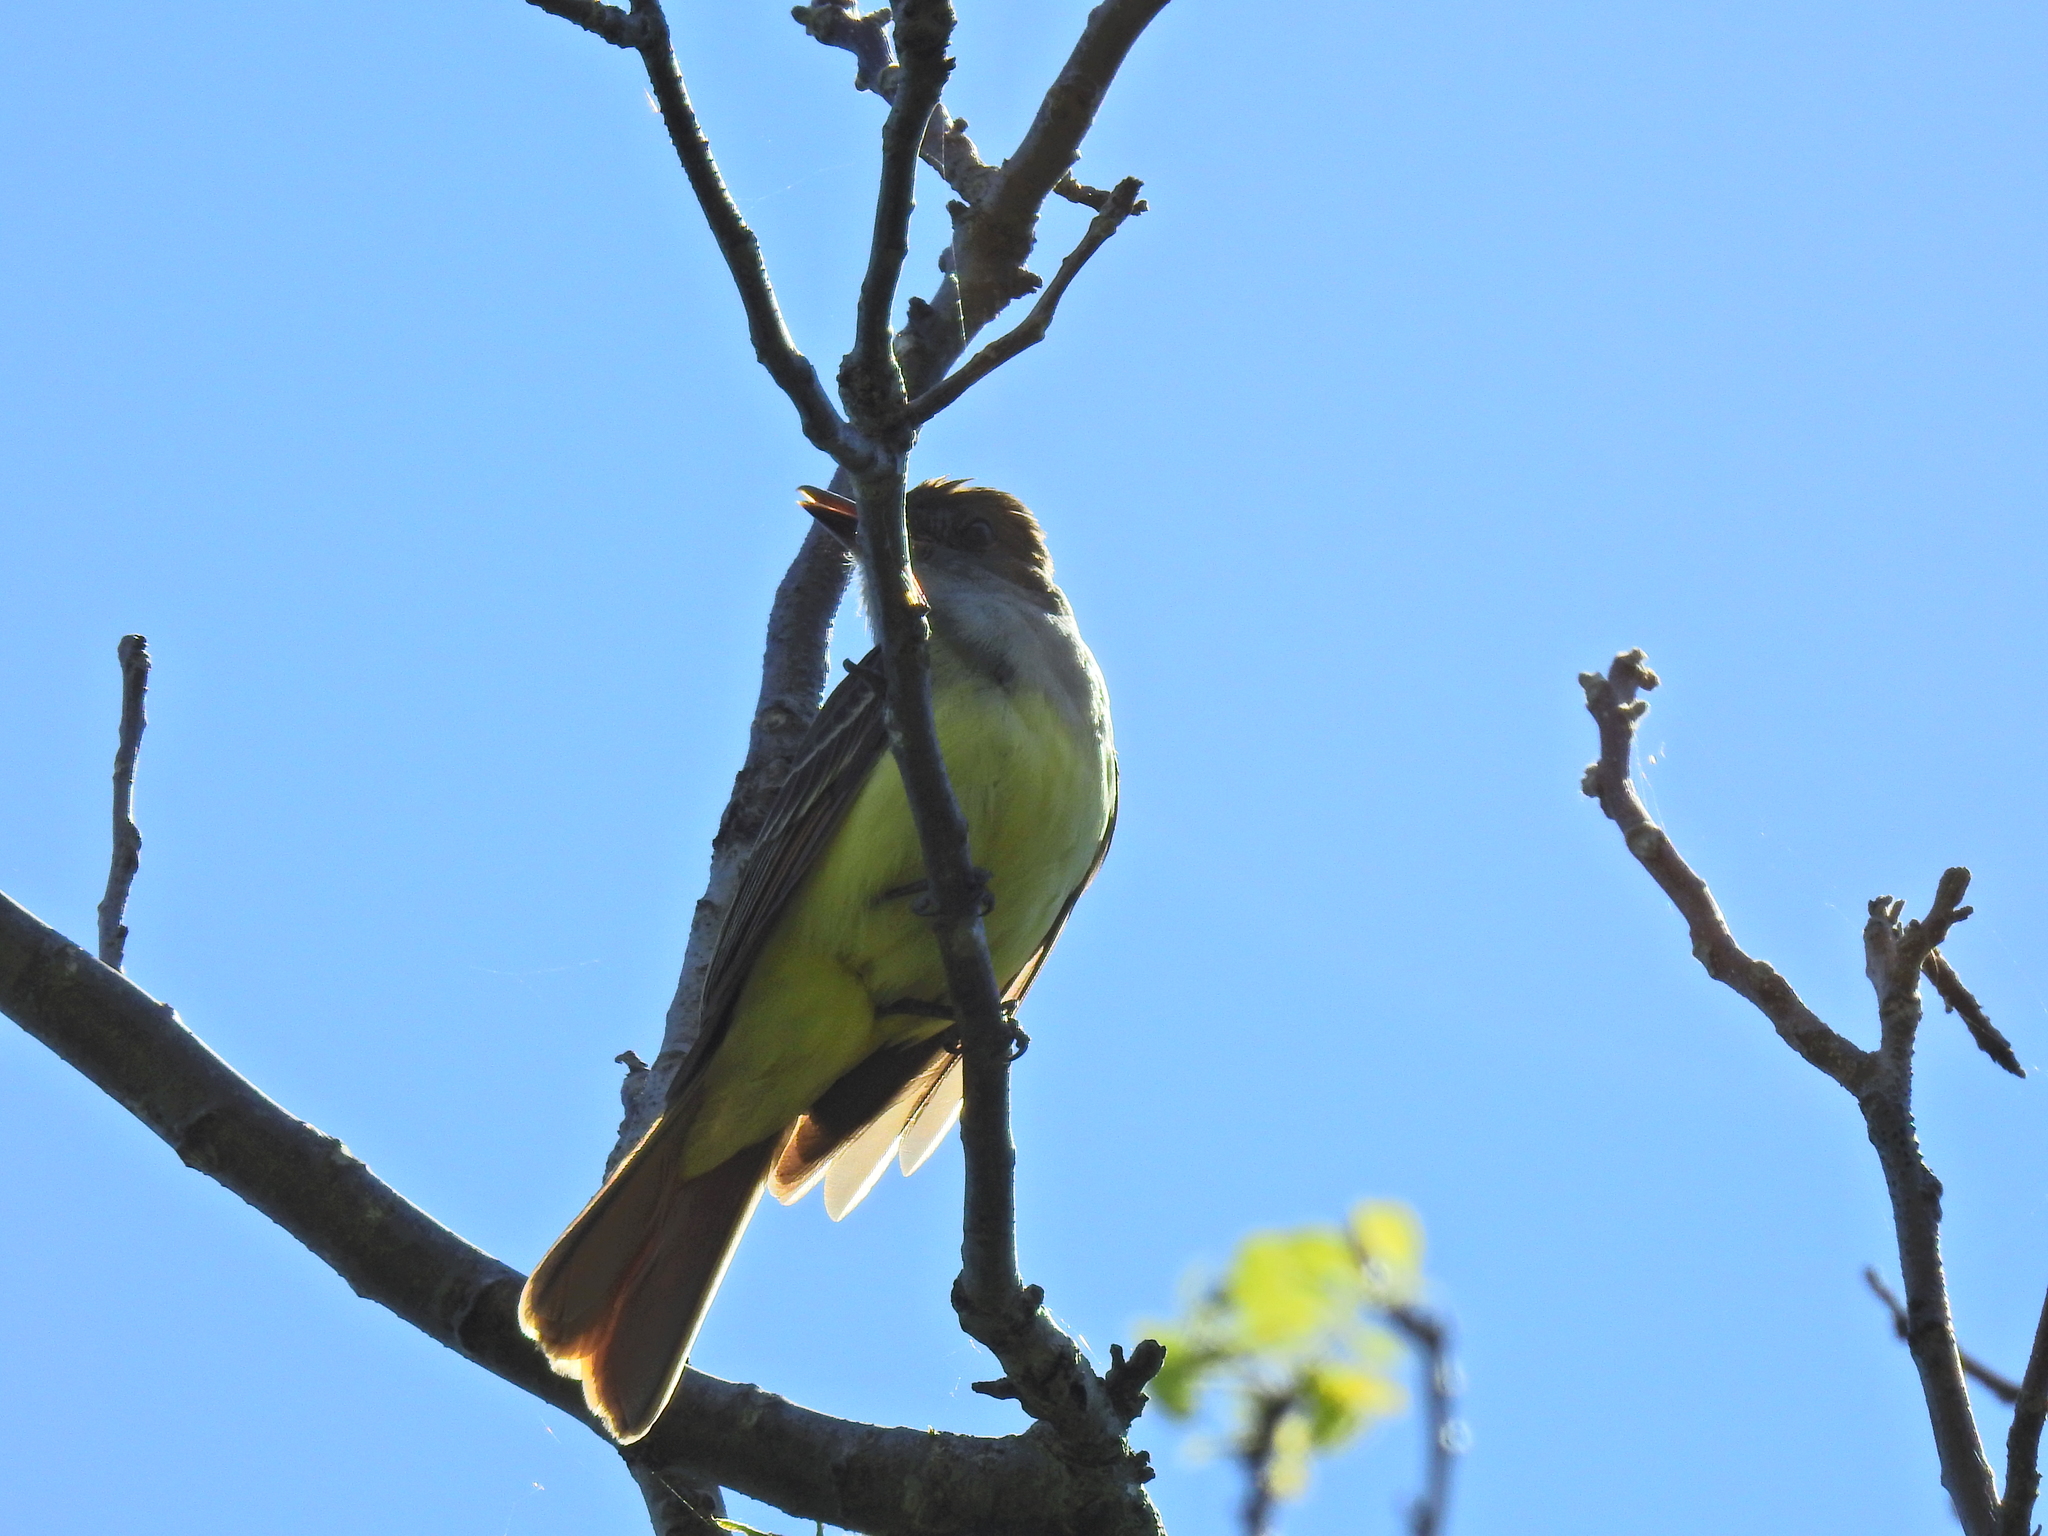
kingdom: Animalia
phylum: Chordata
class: Aves
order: Passeriformes
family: Tyrannidae
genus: Myiarchus
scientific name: Myiarchus crinitus
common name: Great crested flycatcher
